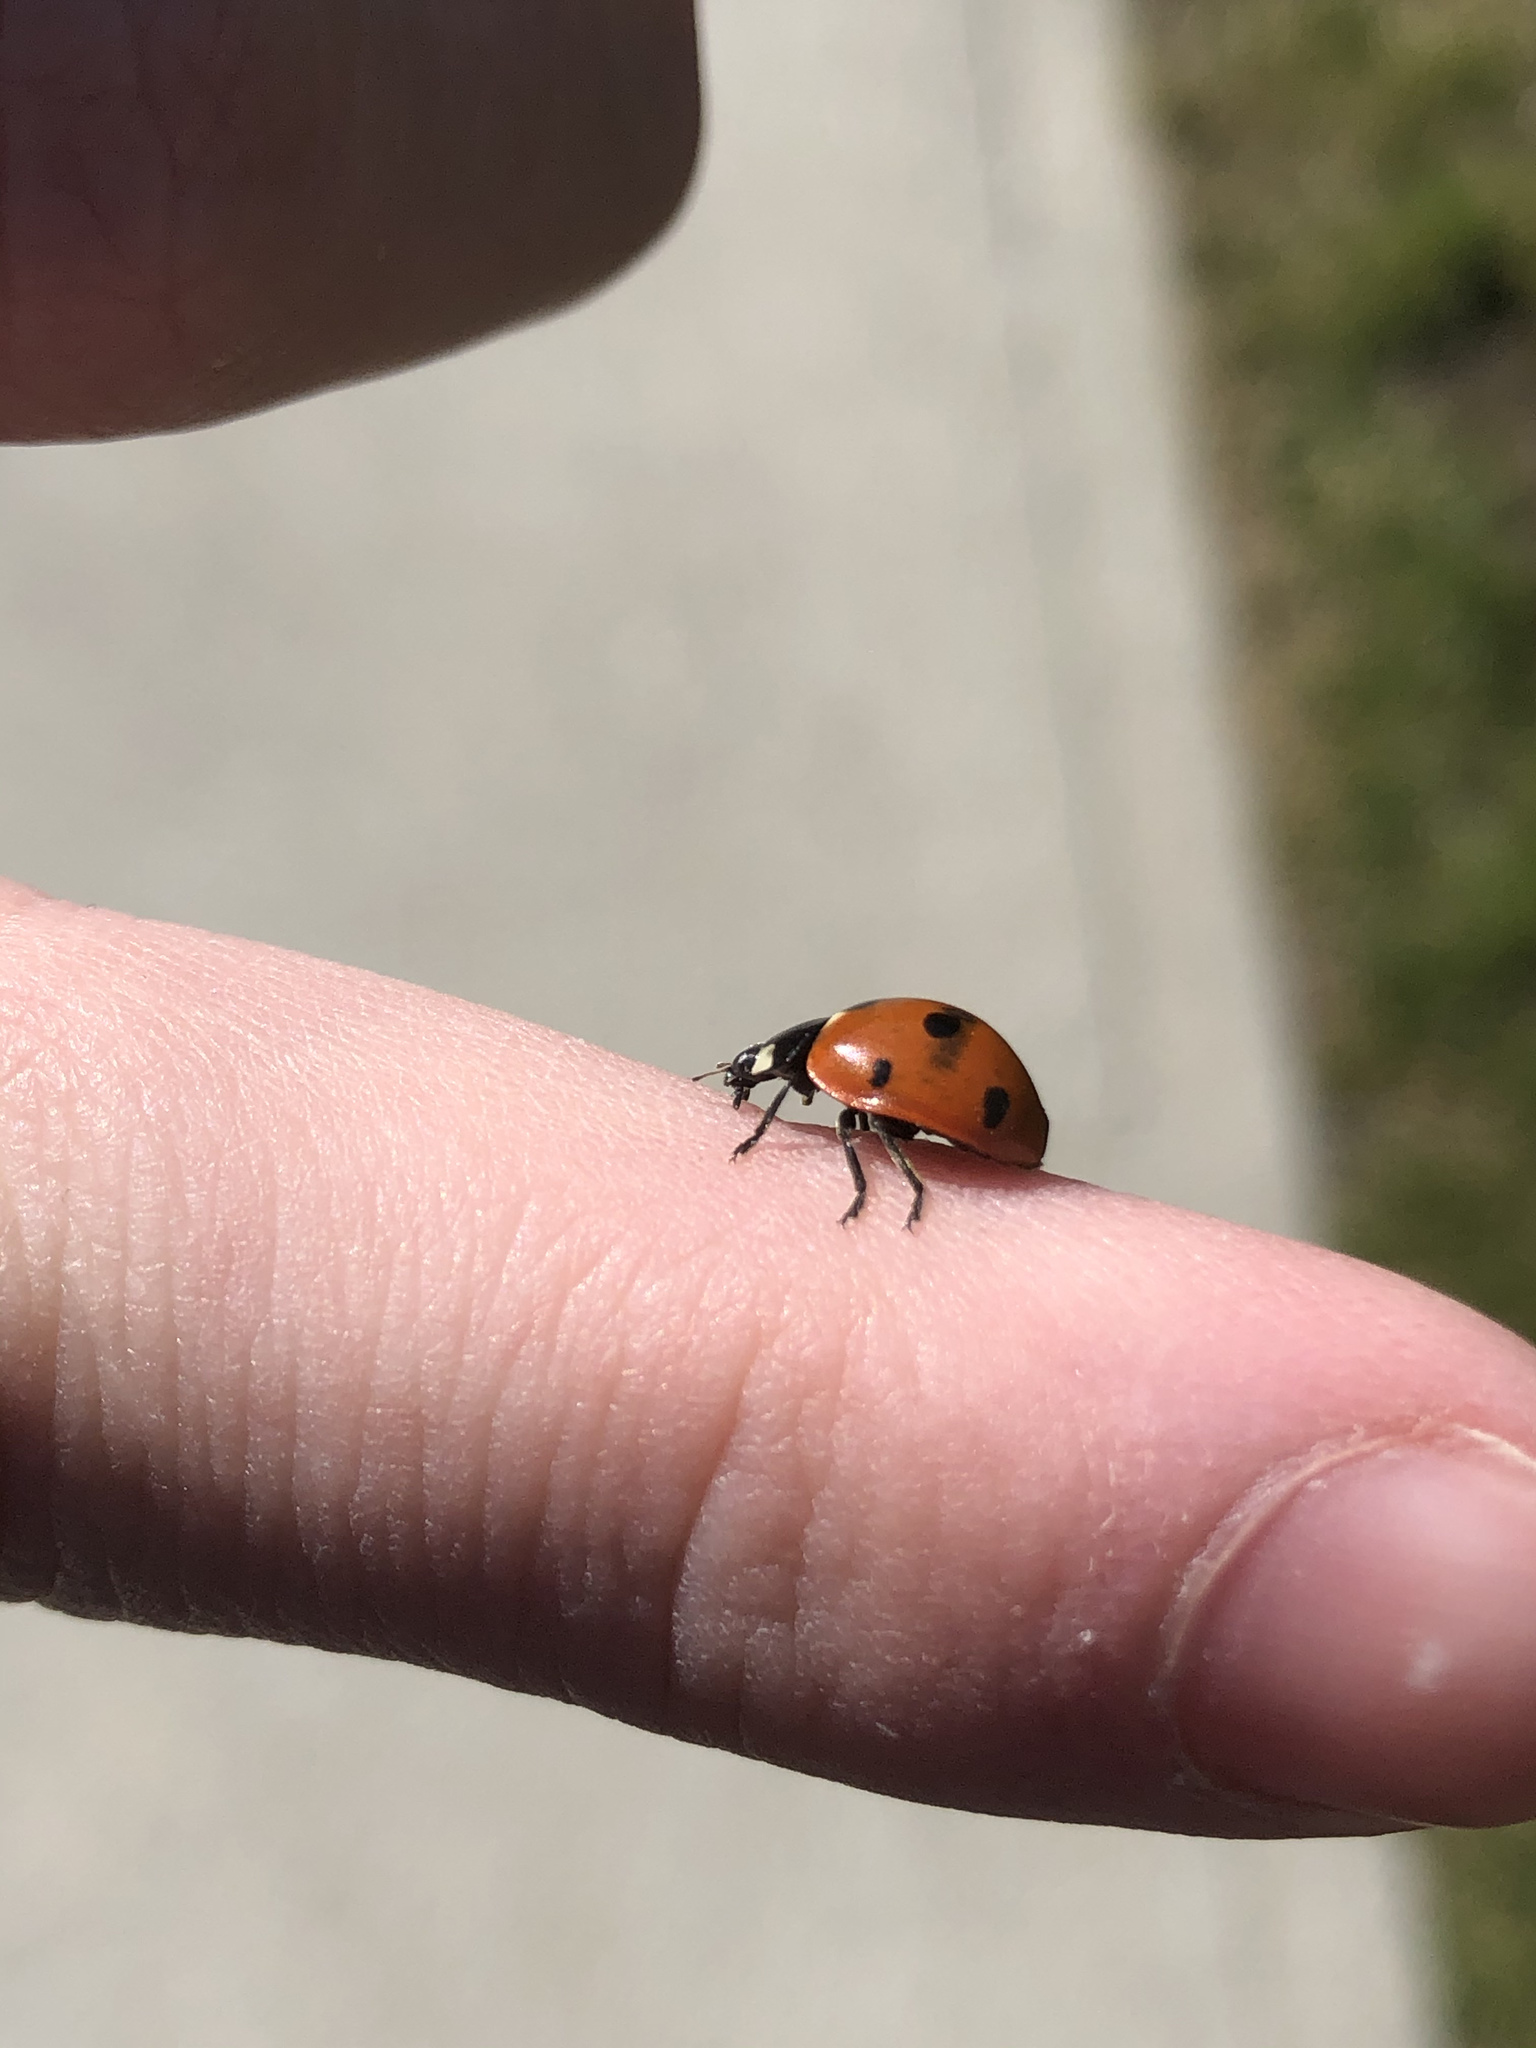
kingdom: Animalia
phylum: Arthropoda
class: Insecta
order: Coleoptera
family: Coccinellidae
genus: Coccinella
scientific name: Coccinella septempunctata
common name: Sevenspotted lady beetle
